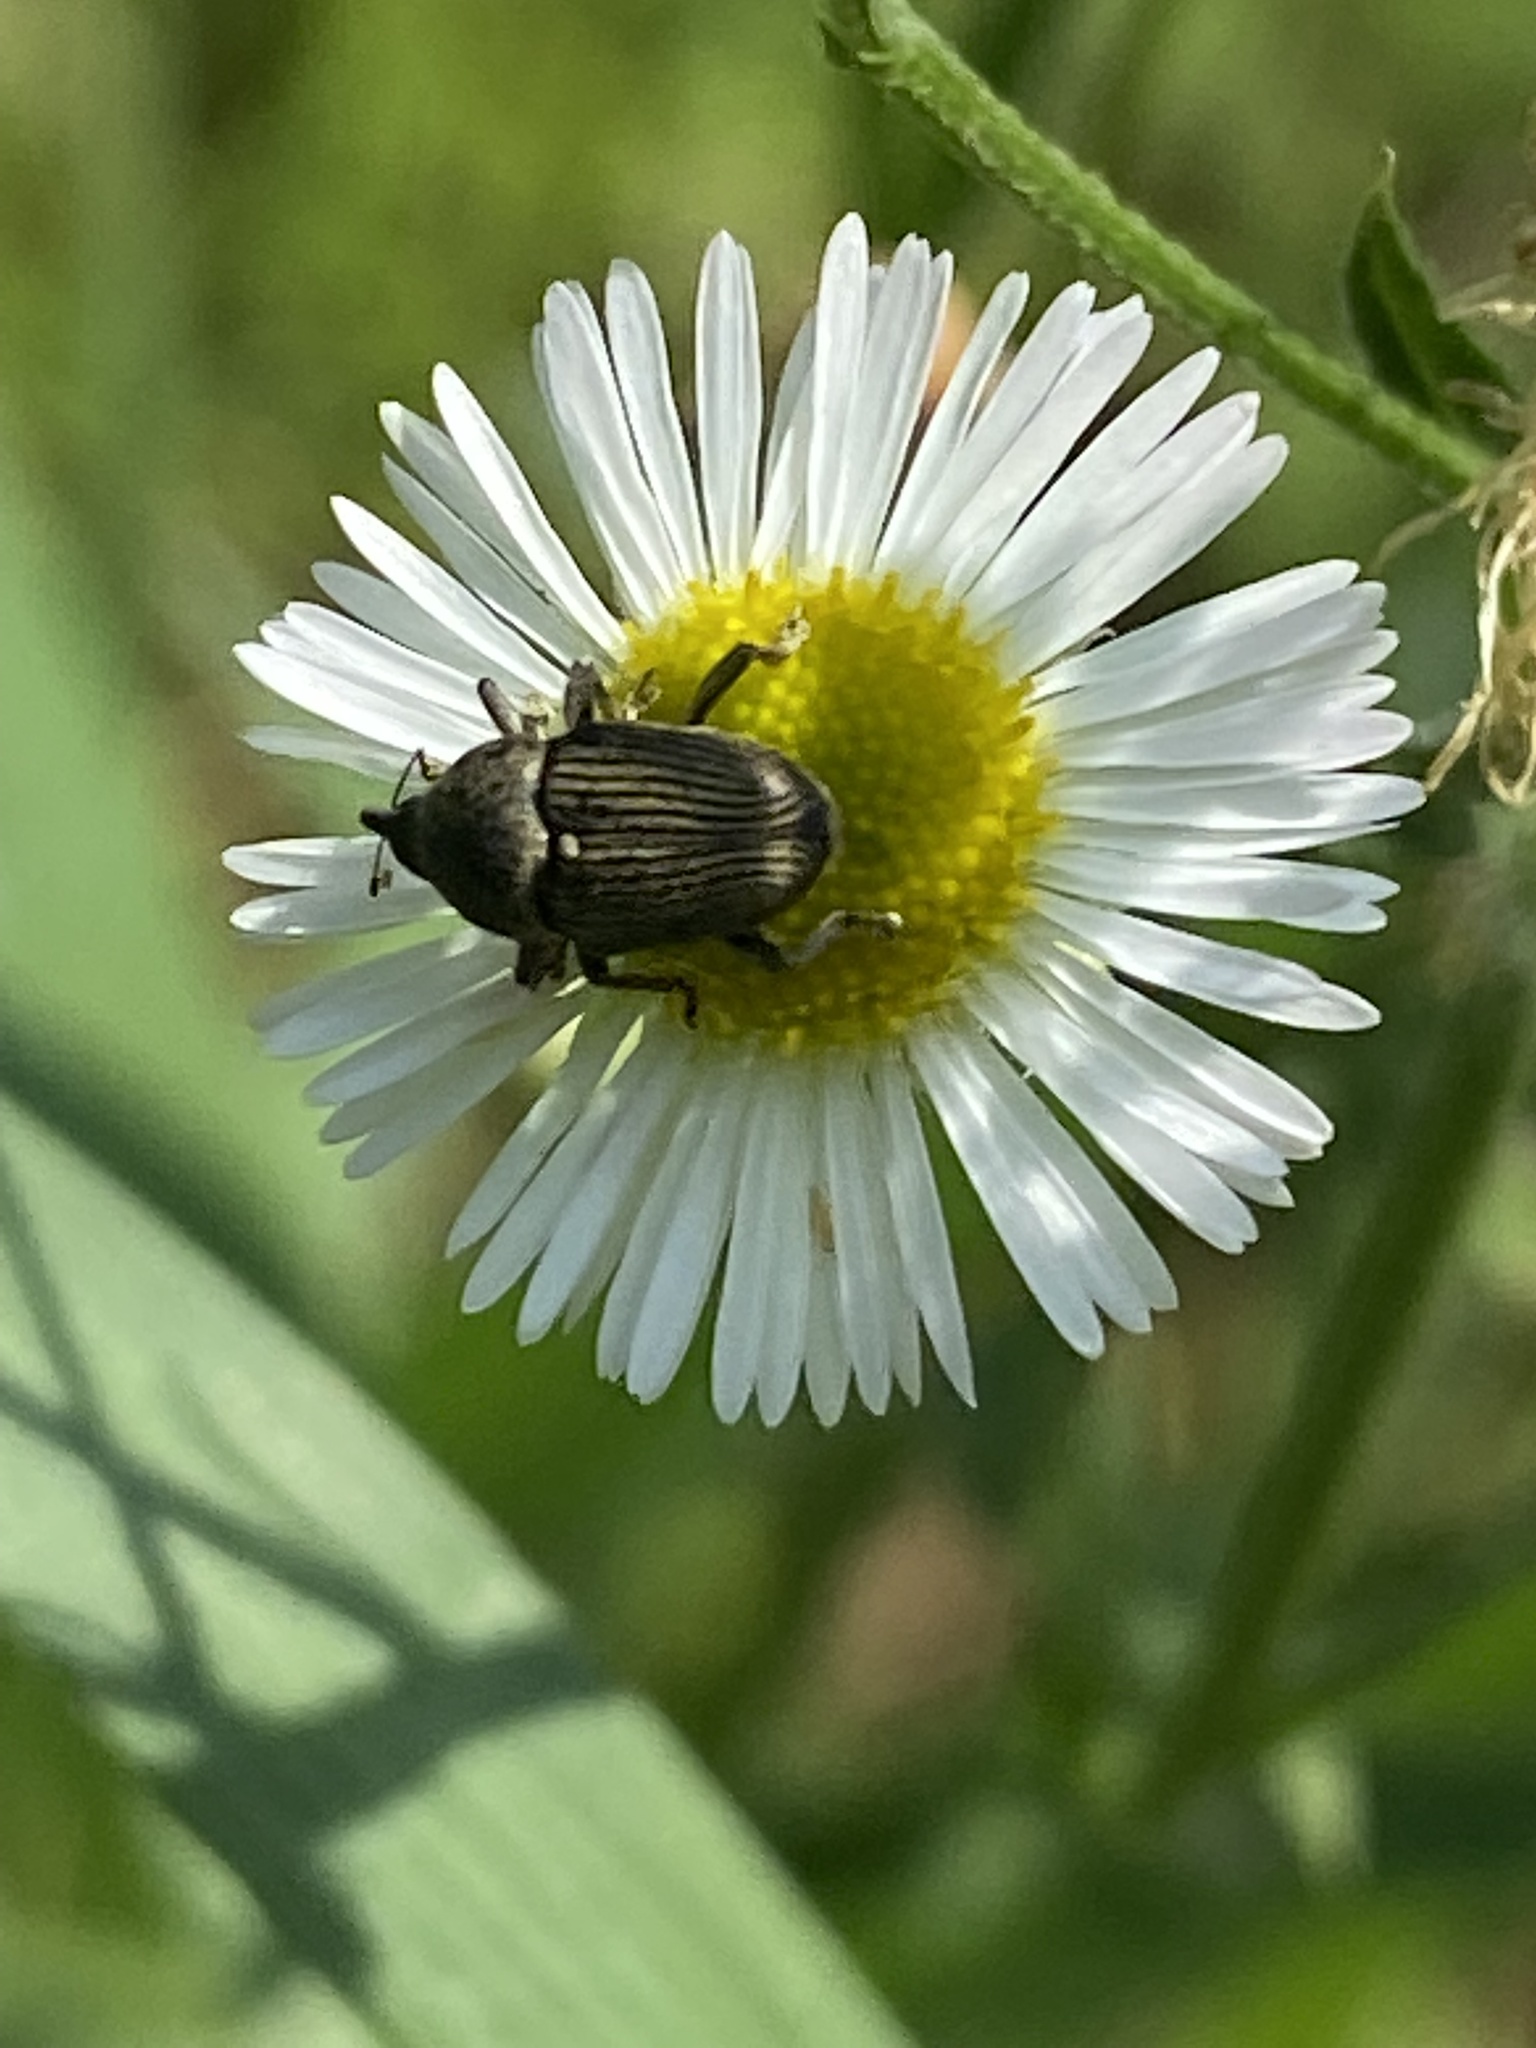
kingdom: Animalia
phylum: Arthropoda
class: Insecta
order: Coleoptera
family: Curculionidae
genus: Odontocorynus
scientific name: Odontocorynus salebrosus
